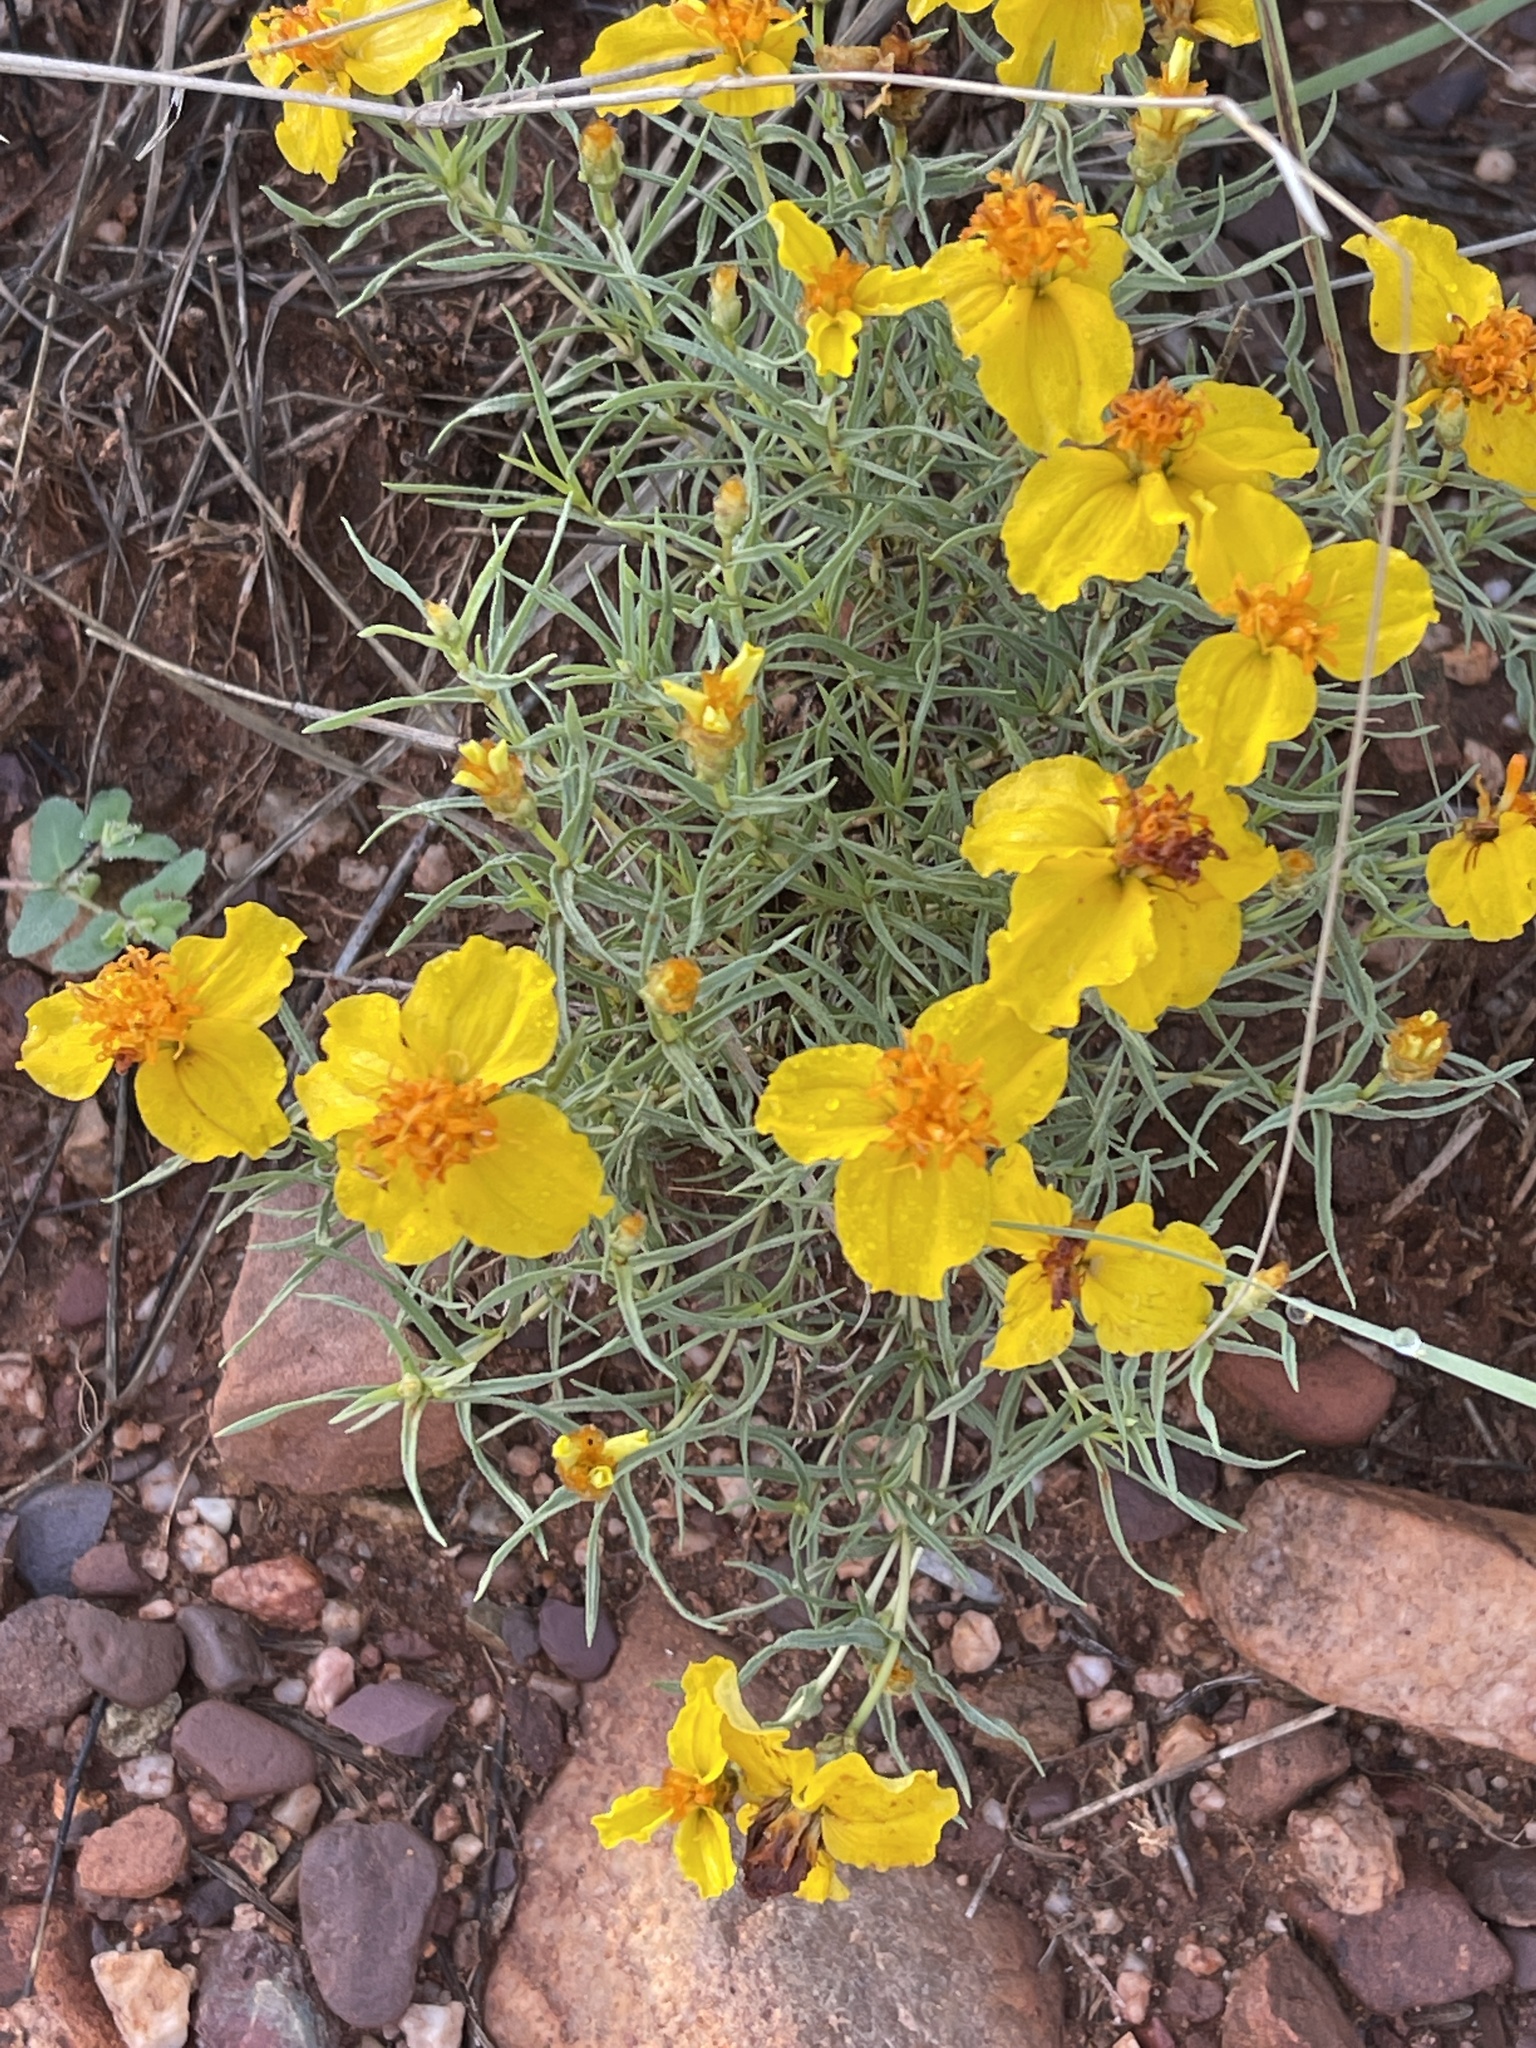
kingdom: Plantae
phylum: Tracheophyta
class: Magnoliopsida
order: Asterales
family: Asteraceae
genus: Zinnia
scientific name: Zinnia grandiflora
